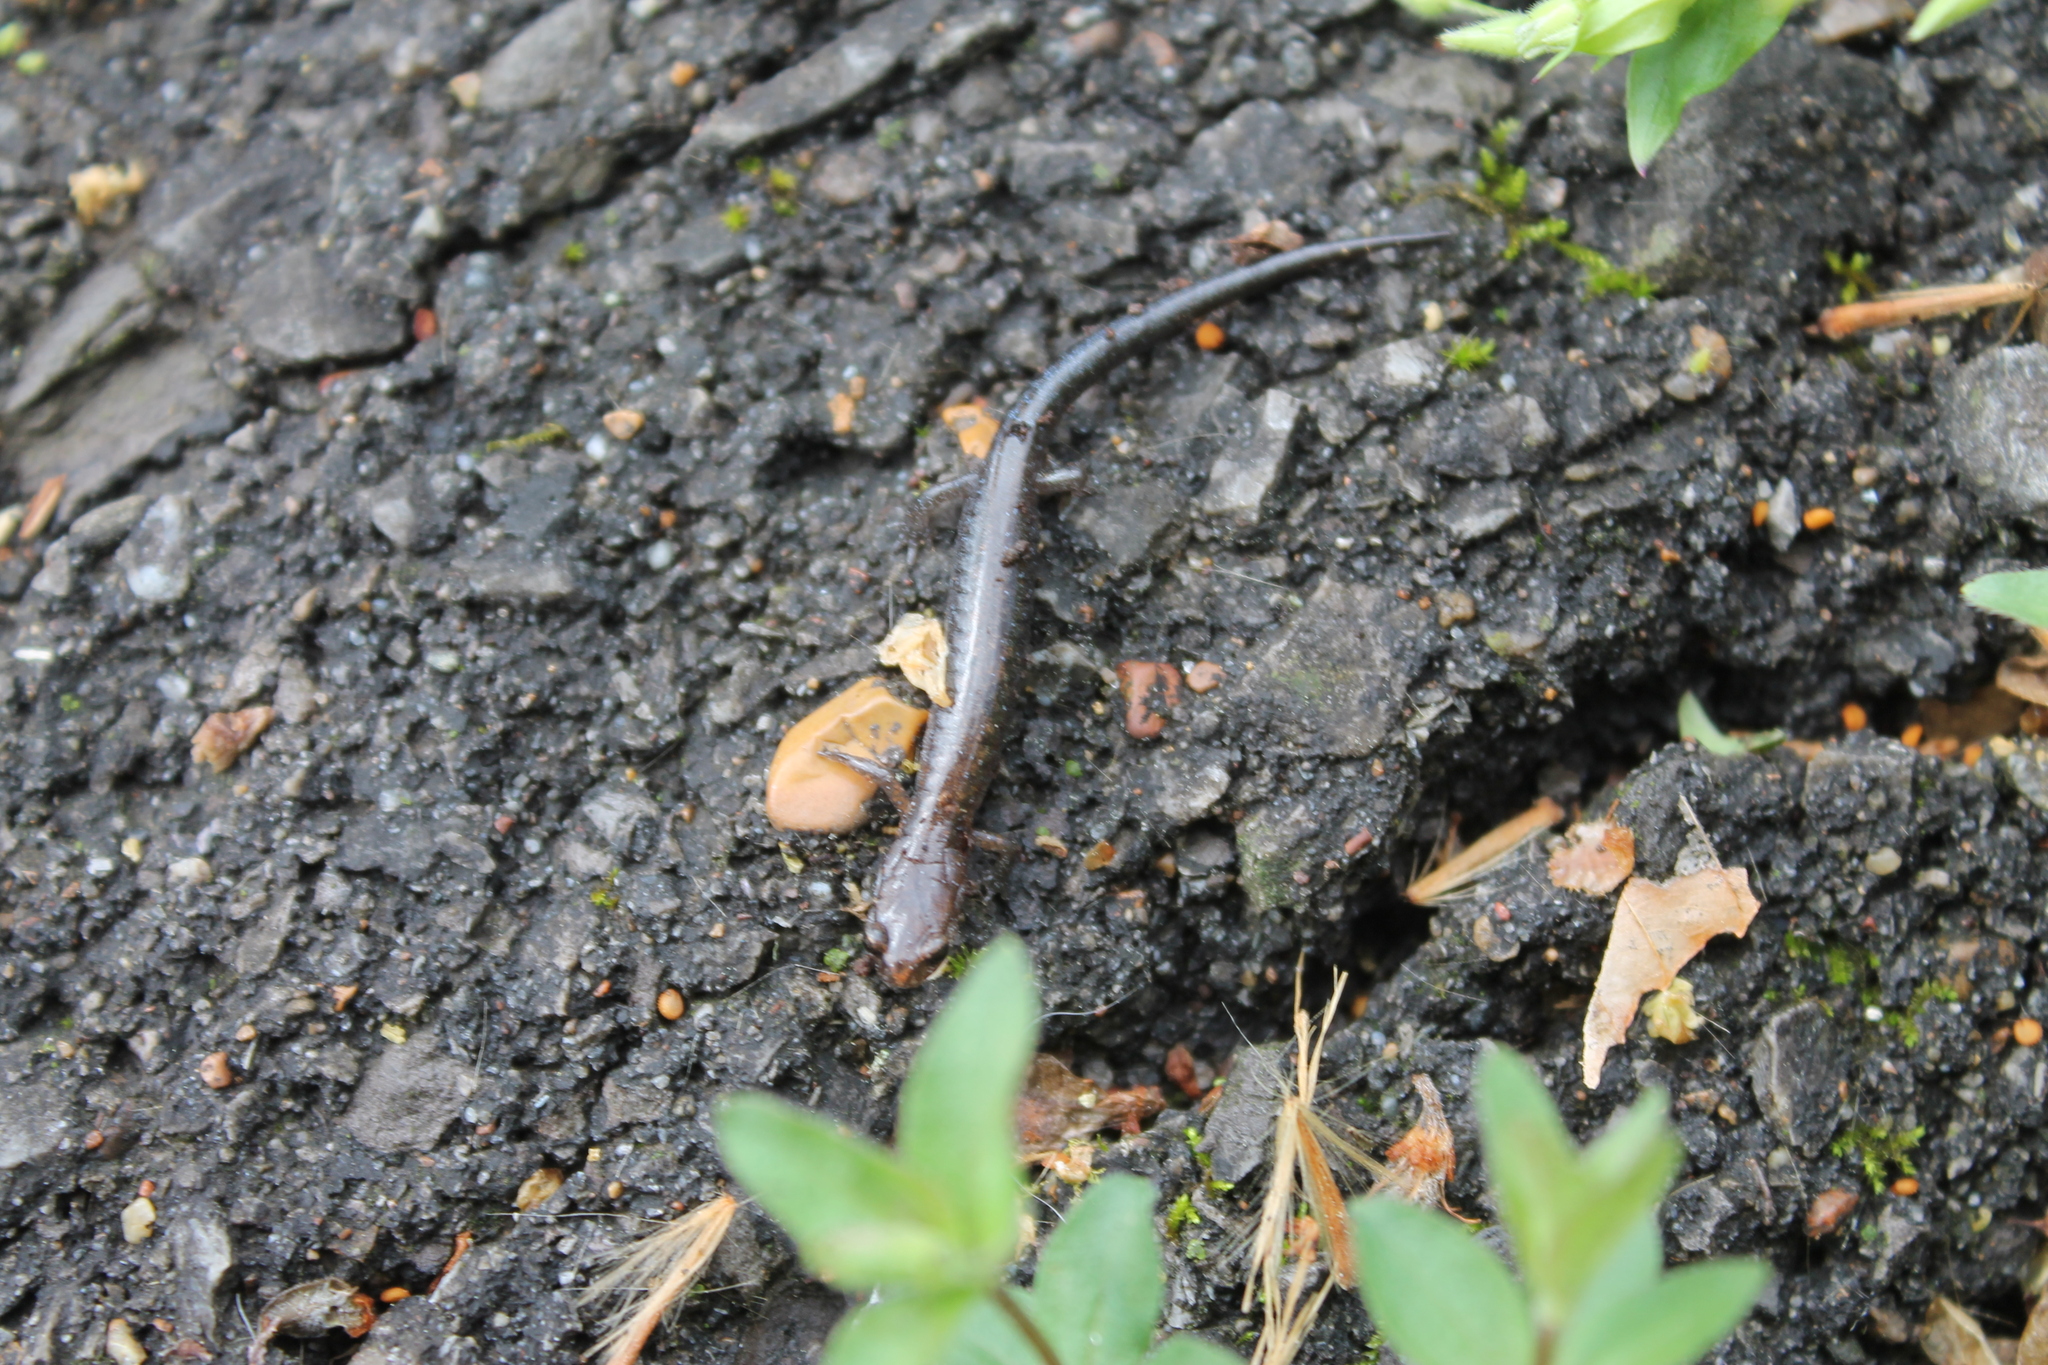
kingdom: Animalia
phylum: Chordata
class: Amphibia
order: Caudata
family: Plethodontidae
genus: Plethodon
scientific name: Plethodon dorsalis
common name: Northern zigzag salamander
